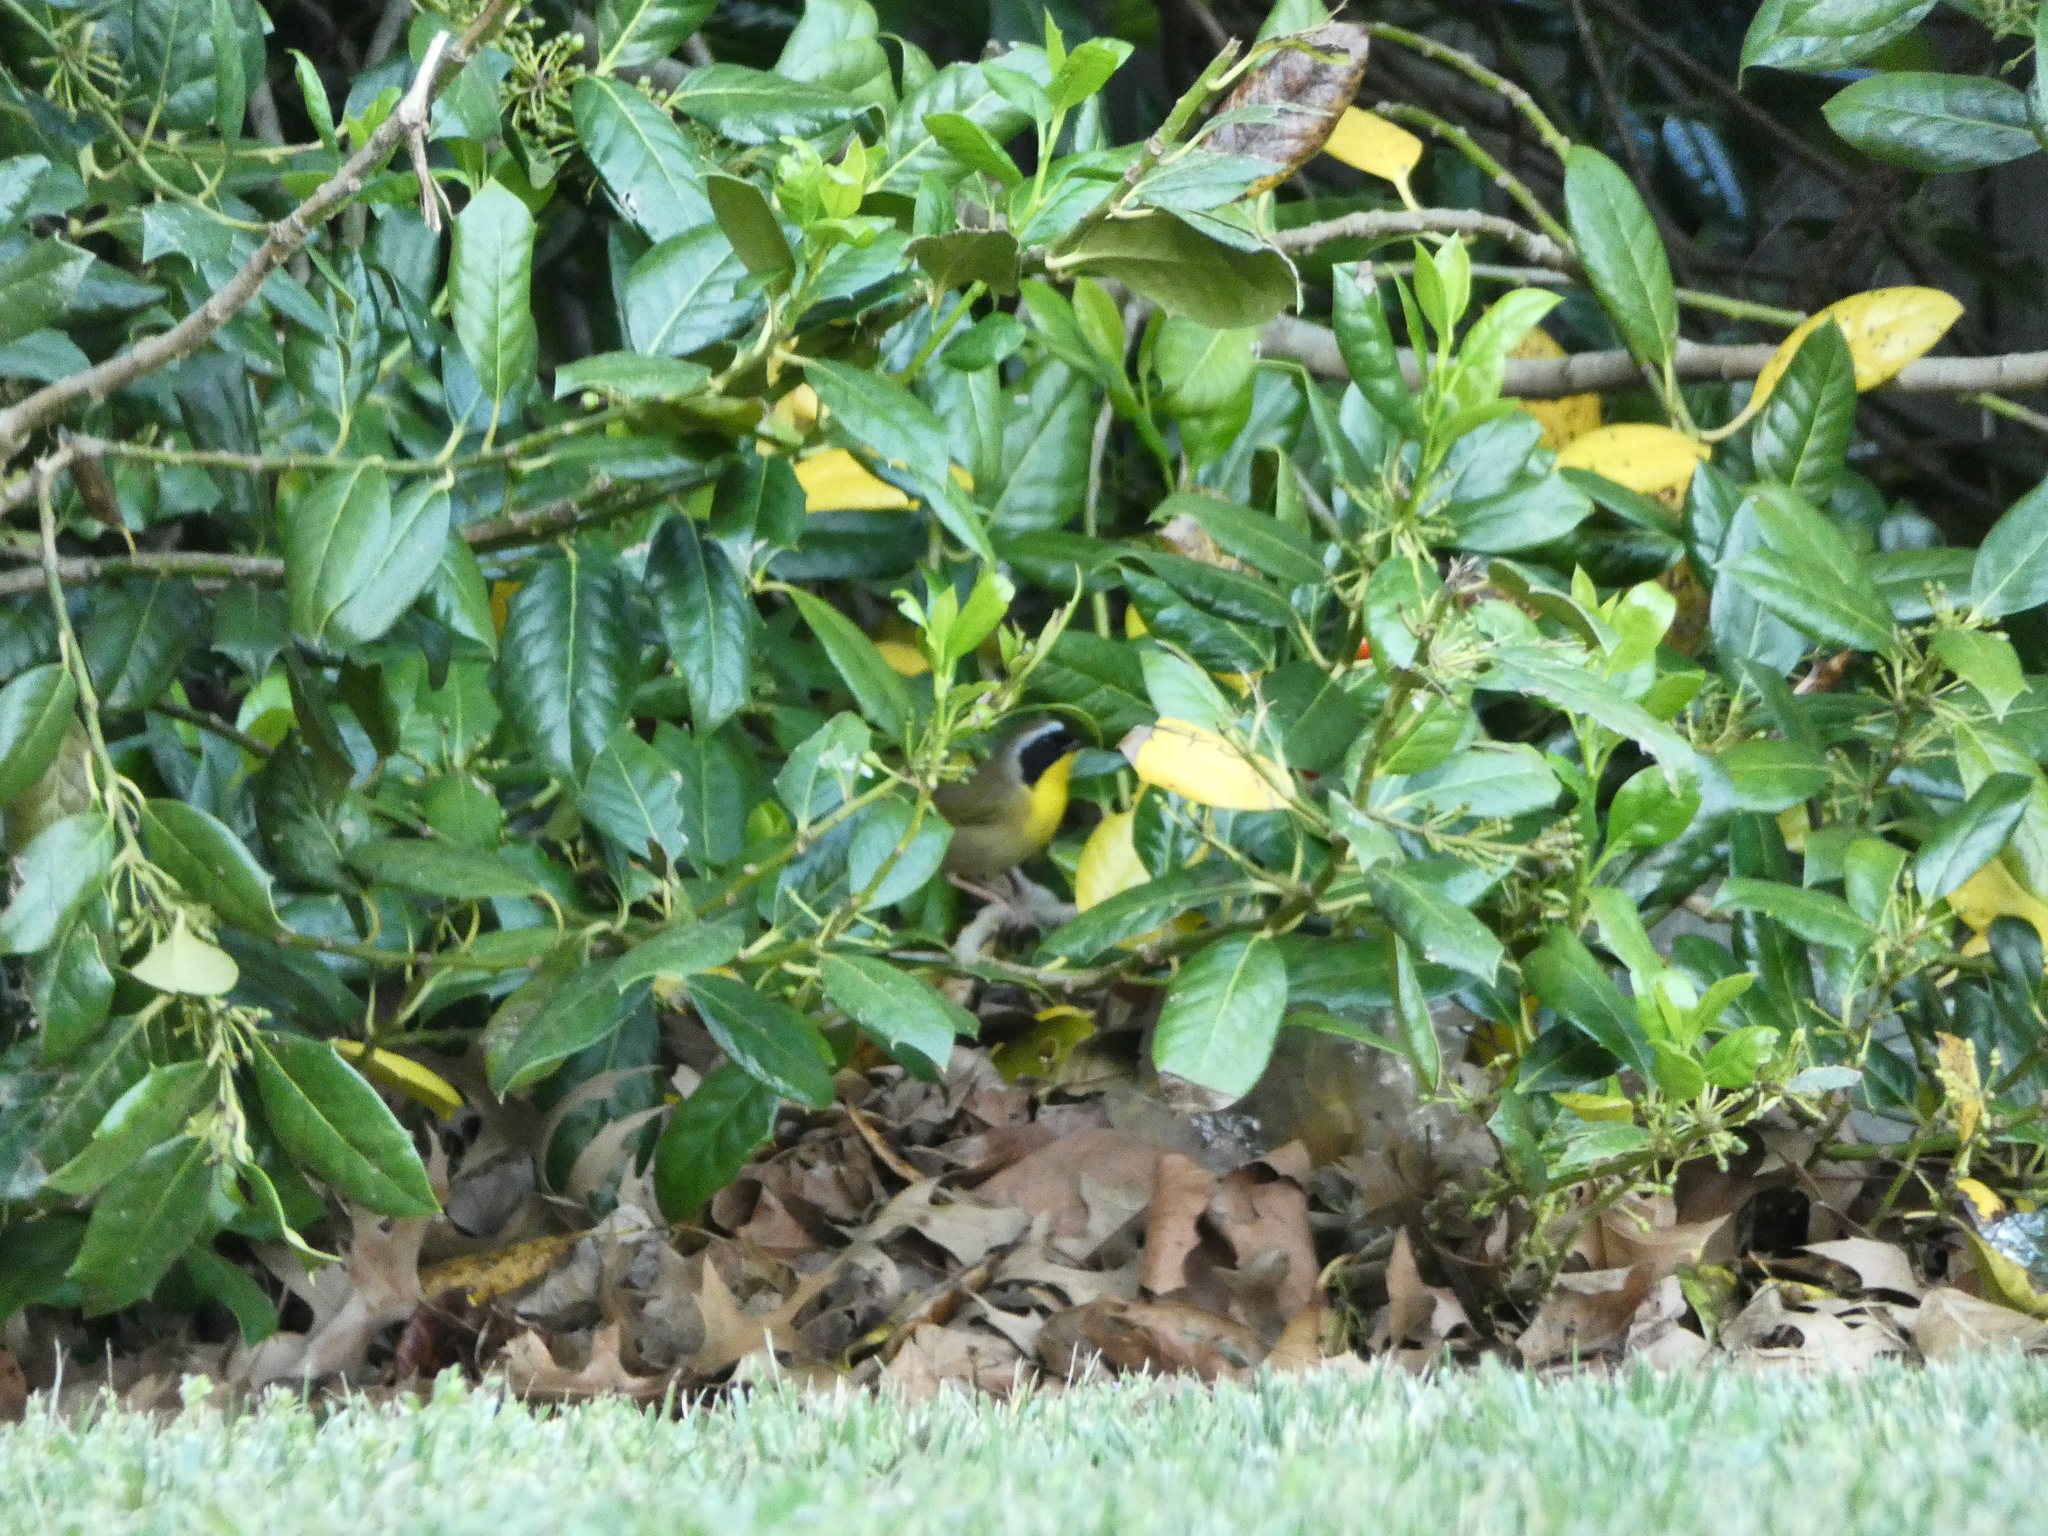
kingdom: Animalia
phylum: Chordata
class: Aves
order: Passeriformes
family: Parulidae
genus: Geothlypis
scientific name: Geothlypis trichas
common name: Common yellowthroat
